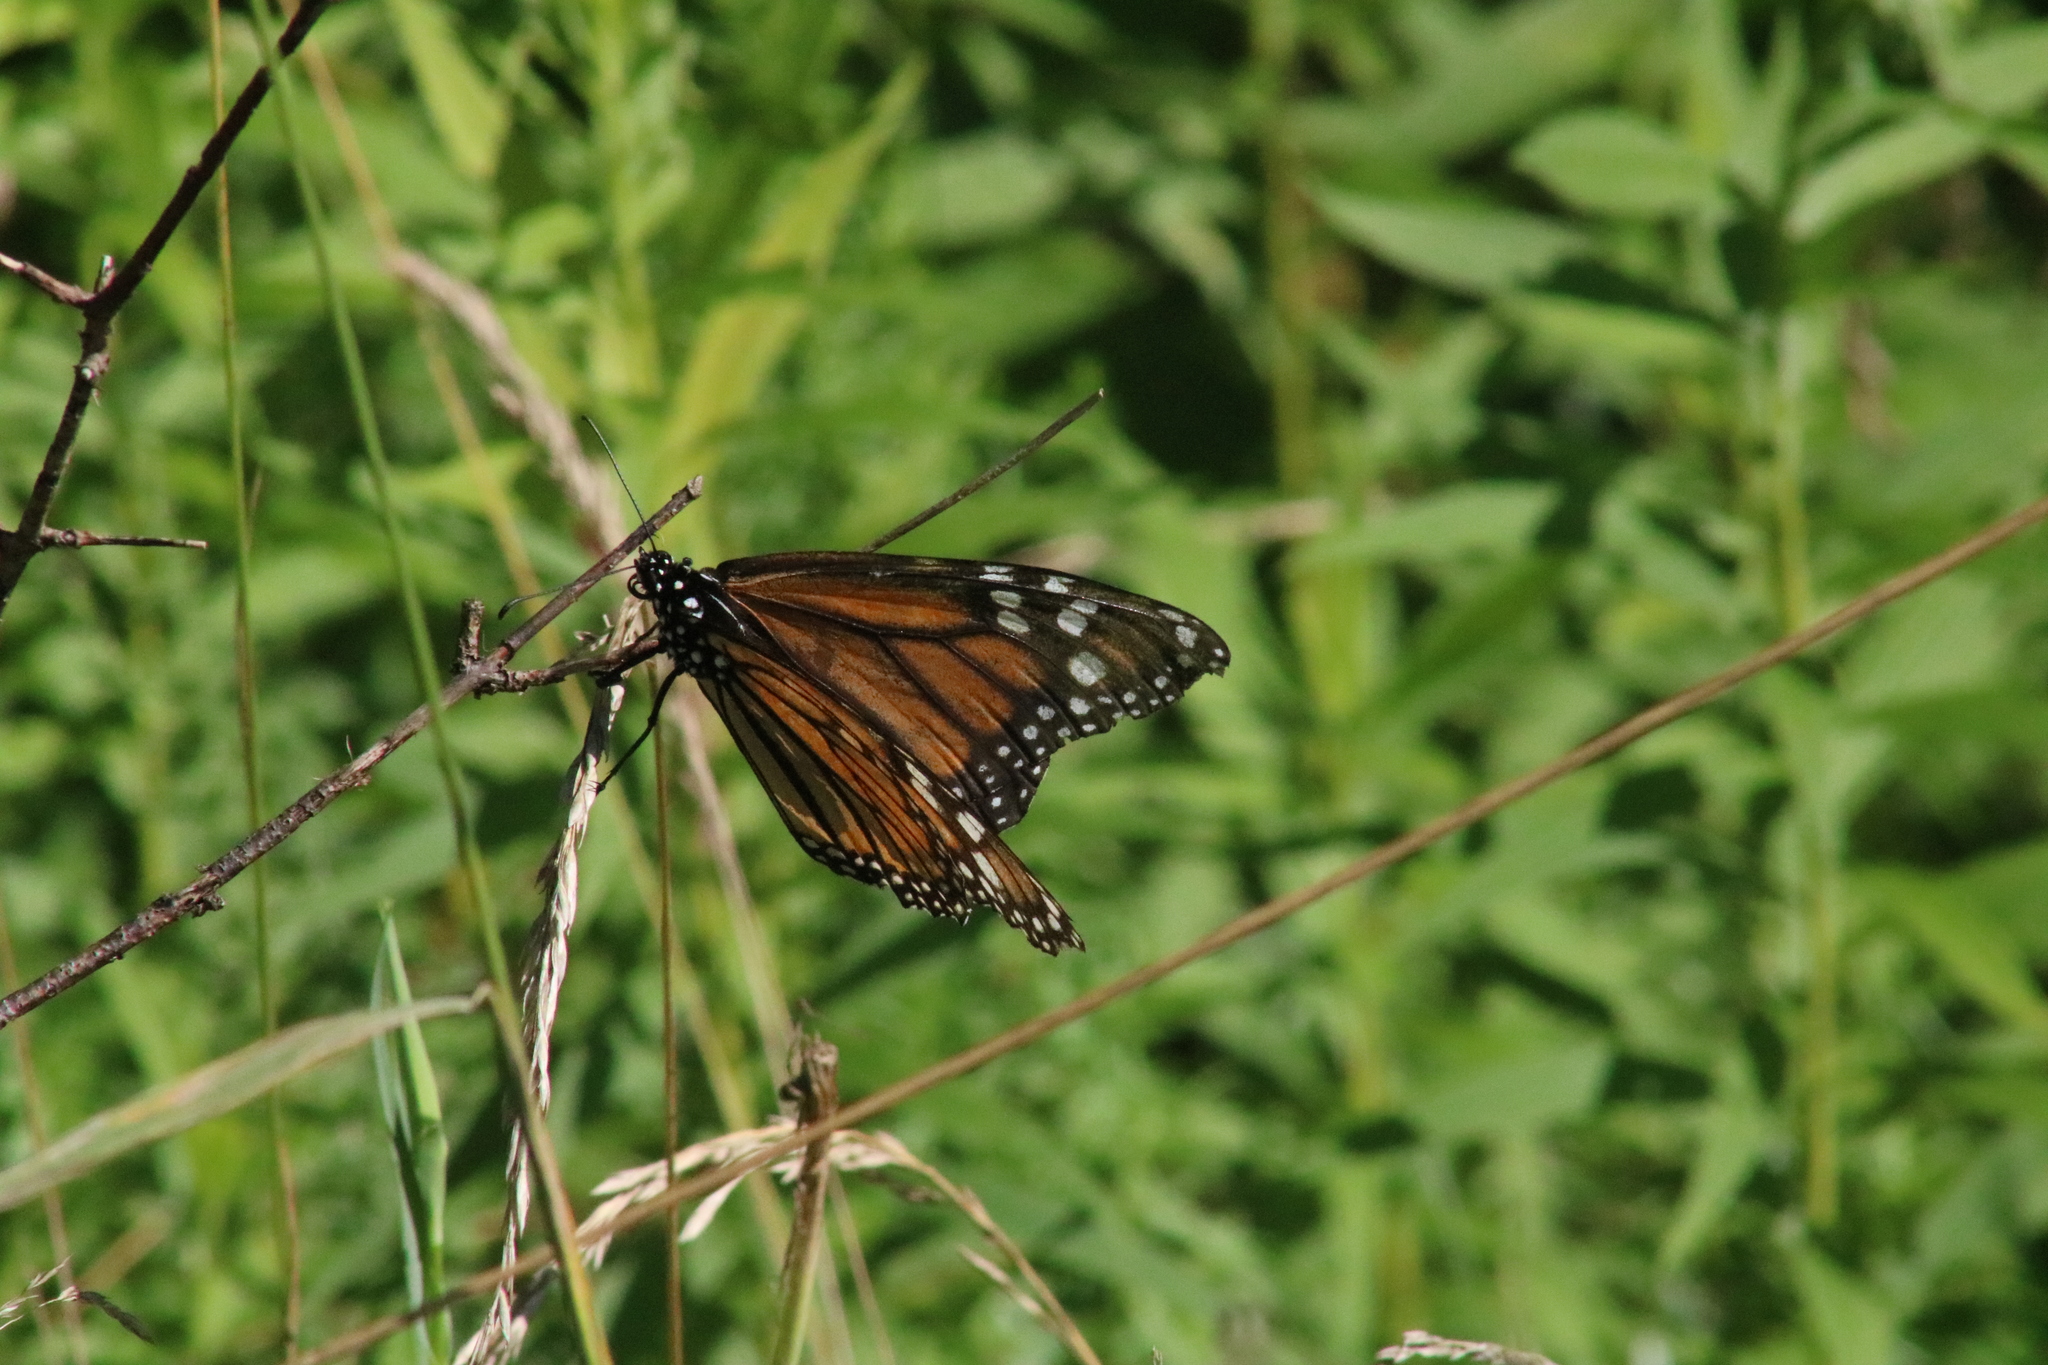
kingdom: Animalia
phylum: Arthropoda
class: Insecta
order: Lepidoptera
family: Nymphalidae
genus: Danaus
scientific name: Danaus plexippus
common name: Monarch
